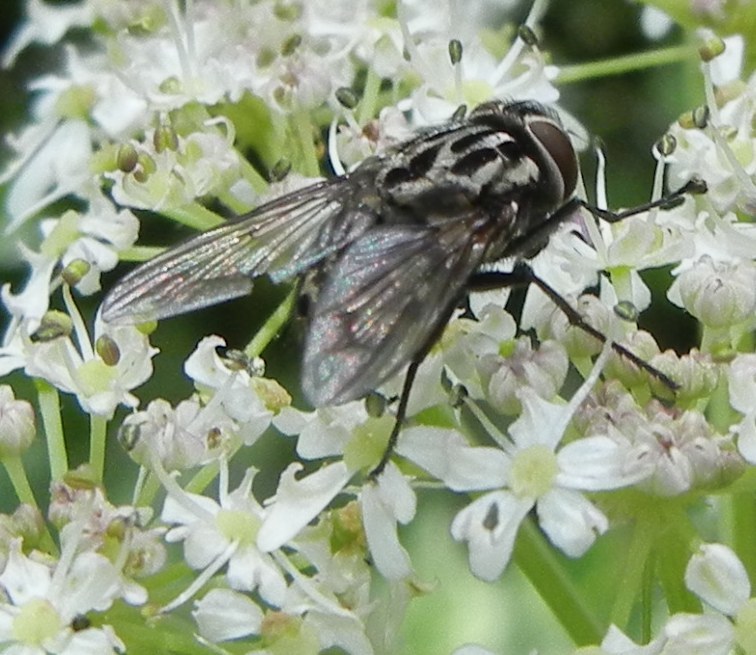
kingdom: Animalia
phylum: Arthropoda
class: Insecta
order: Diptera
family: Muscidae
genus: Graphomya
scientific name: Graphomya maculata
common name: Muscid fly
